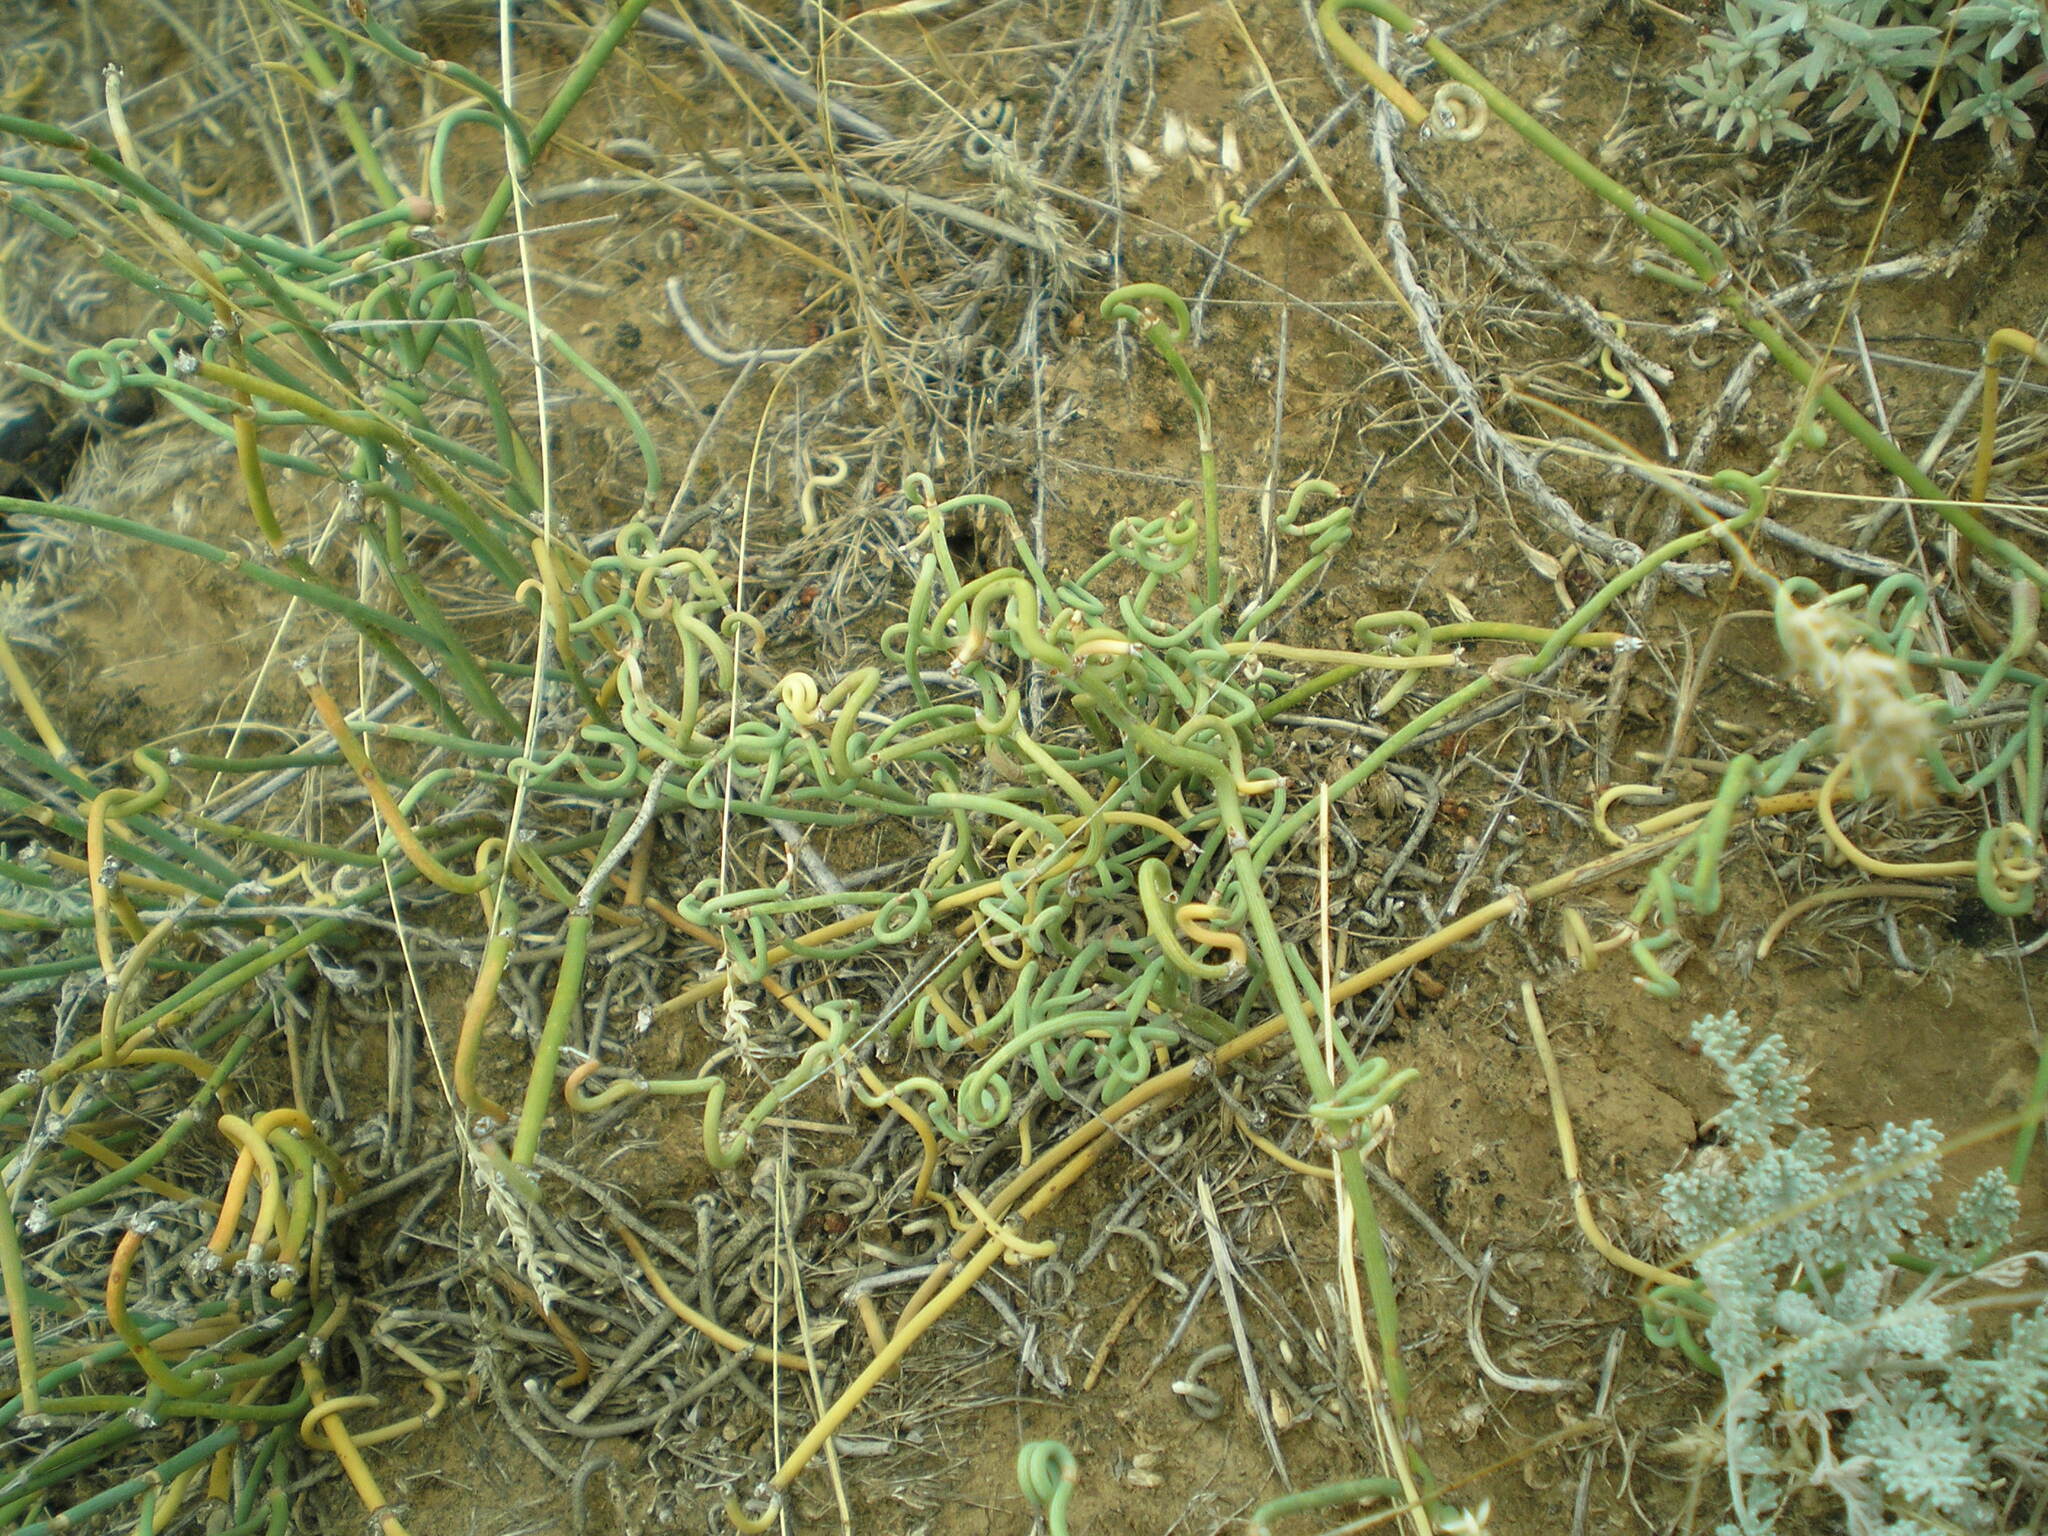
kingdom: Plantae
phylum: Tracheophyta
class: Gnetopsida
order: Ephedrales
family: Ephedraceae
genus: Ephedra
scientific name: Ephedra distachya
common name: Sea grape
